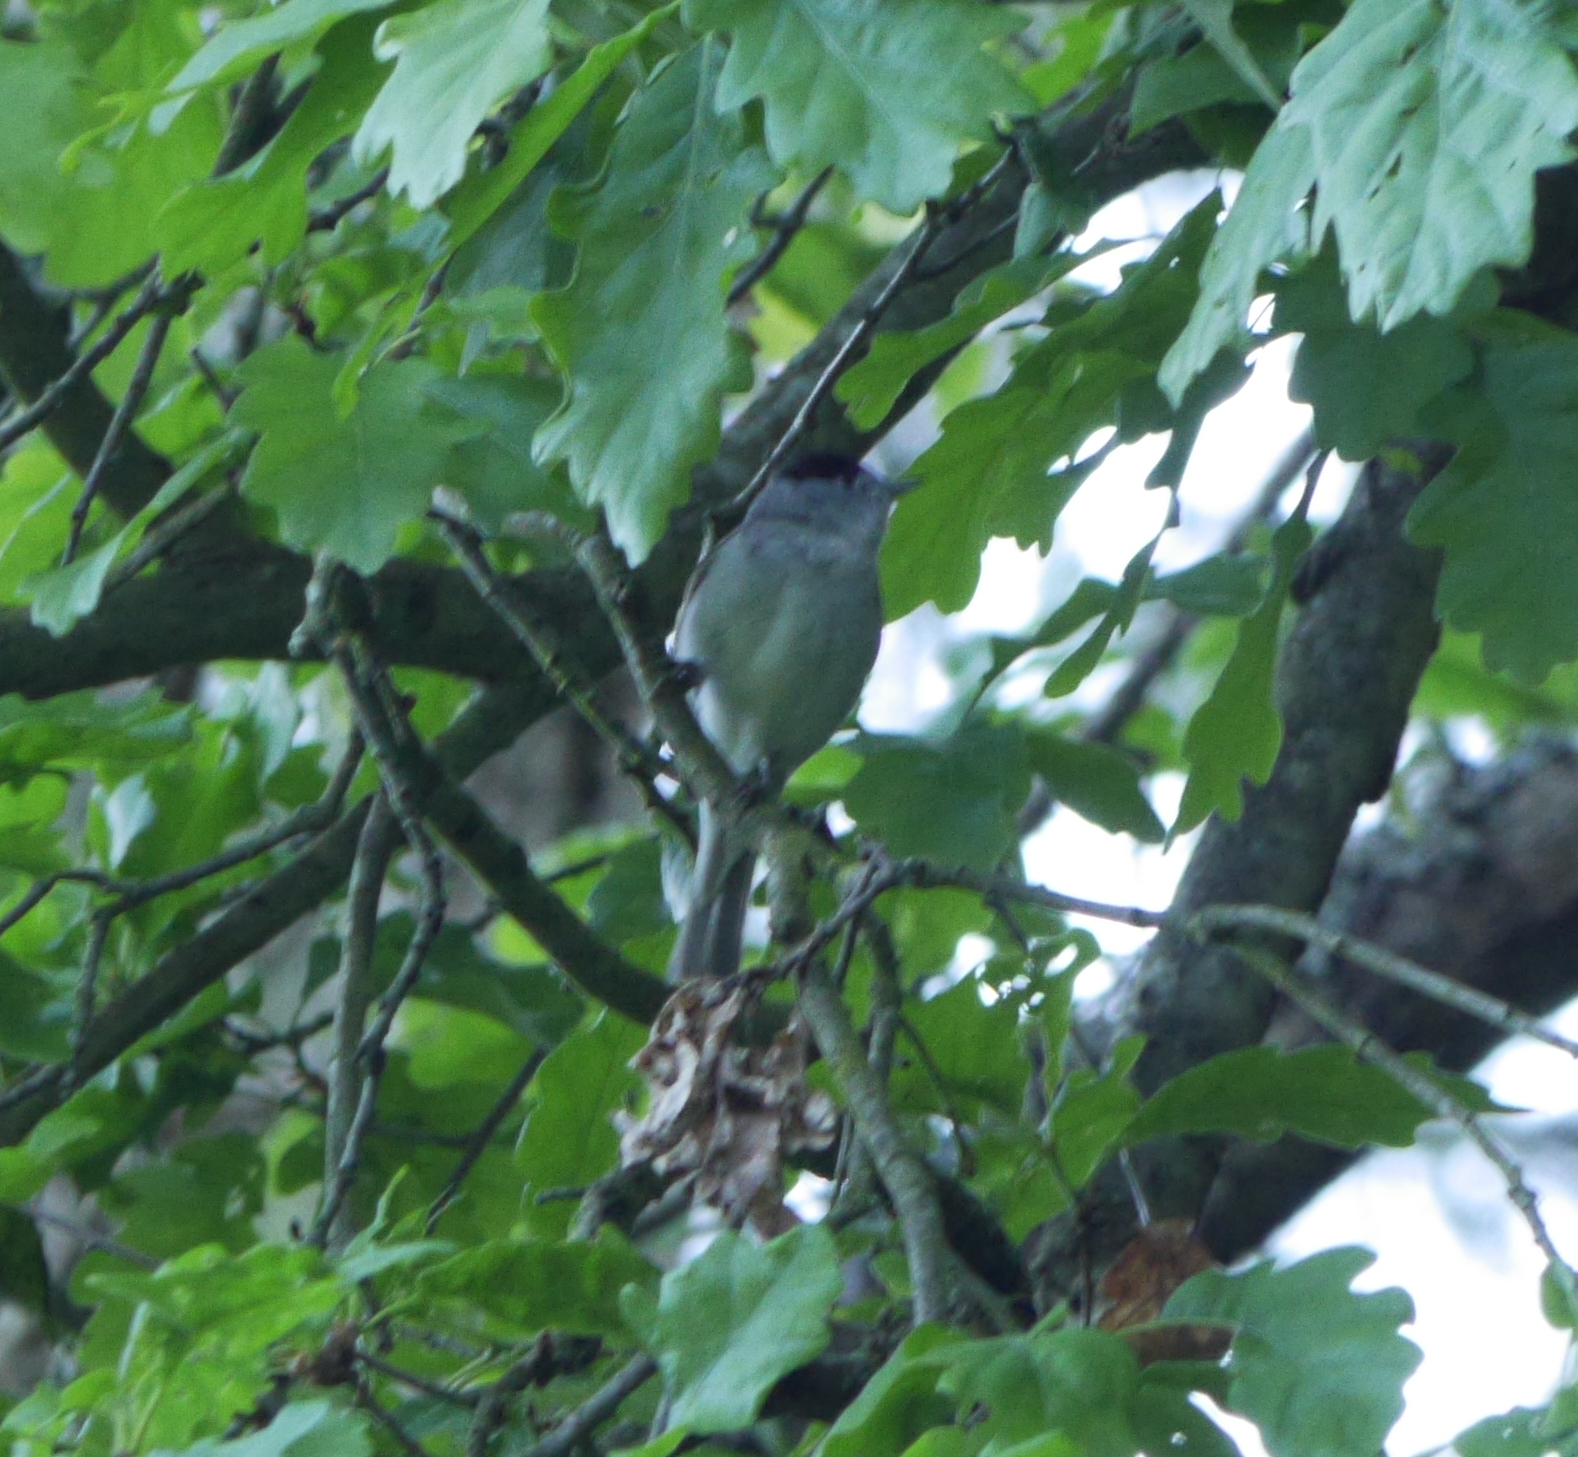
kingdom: Animalia
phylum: Chordata
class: Aves
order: Passeriformes
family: Sylviidae
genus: Sylvia
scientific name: Sylvia atricapilla
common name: Eurasian blackcap
